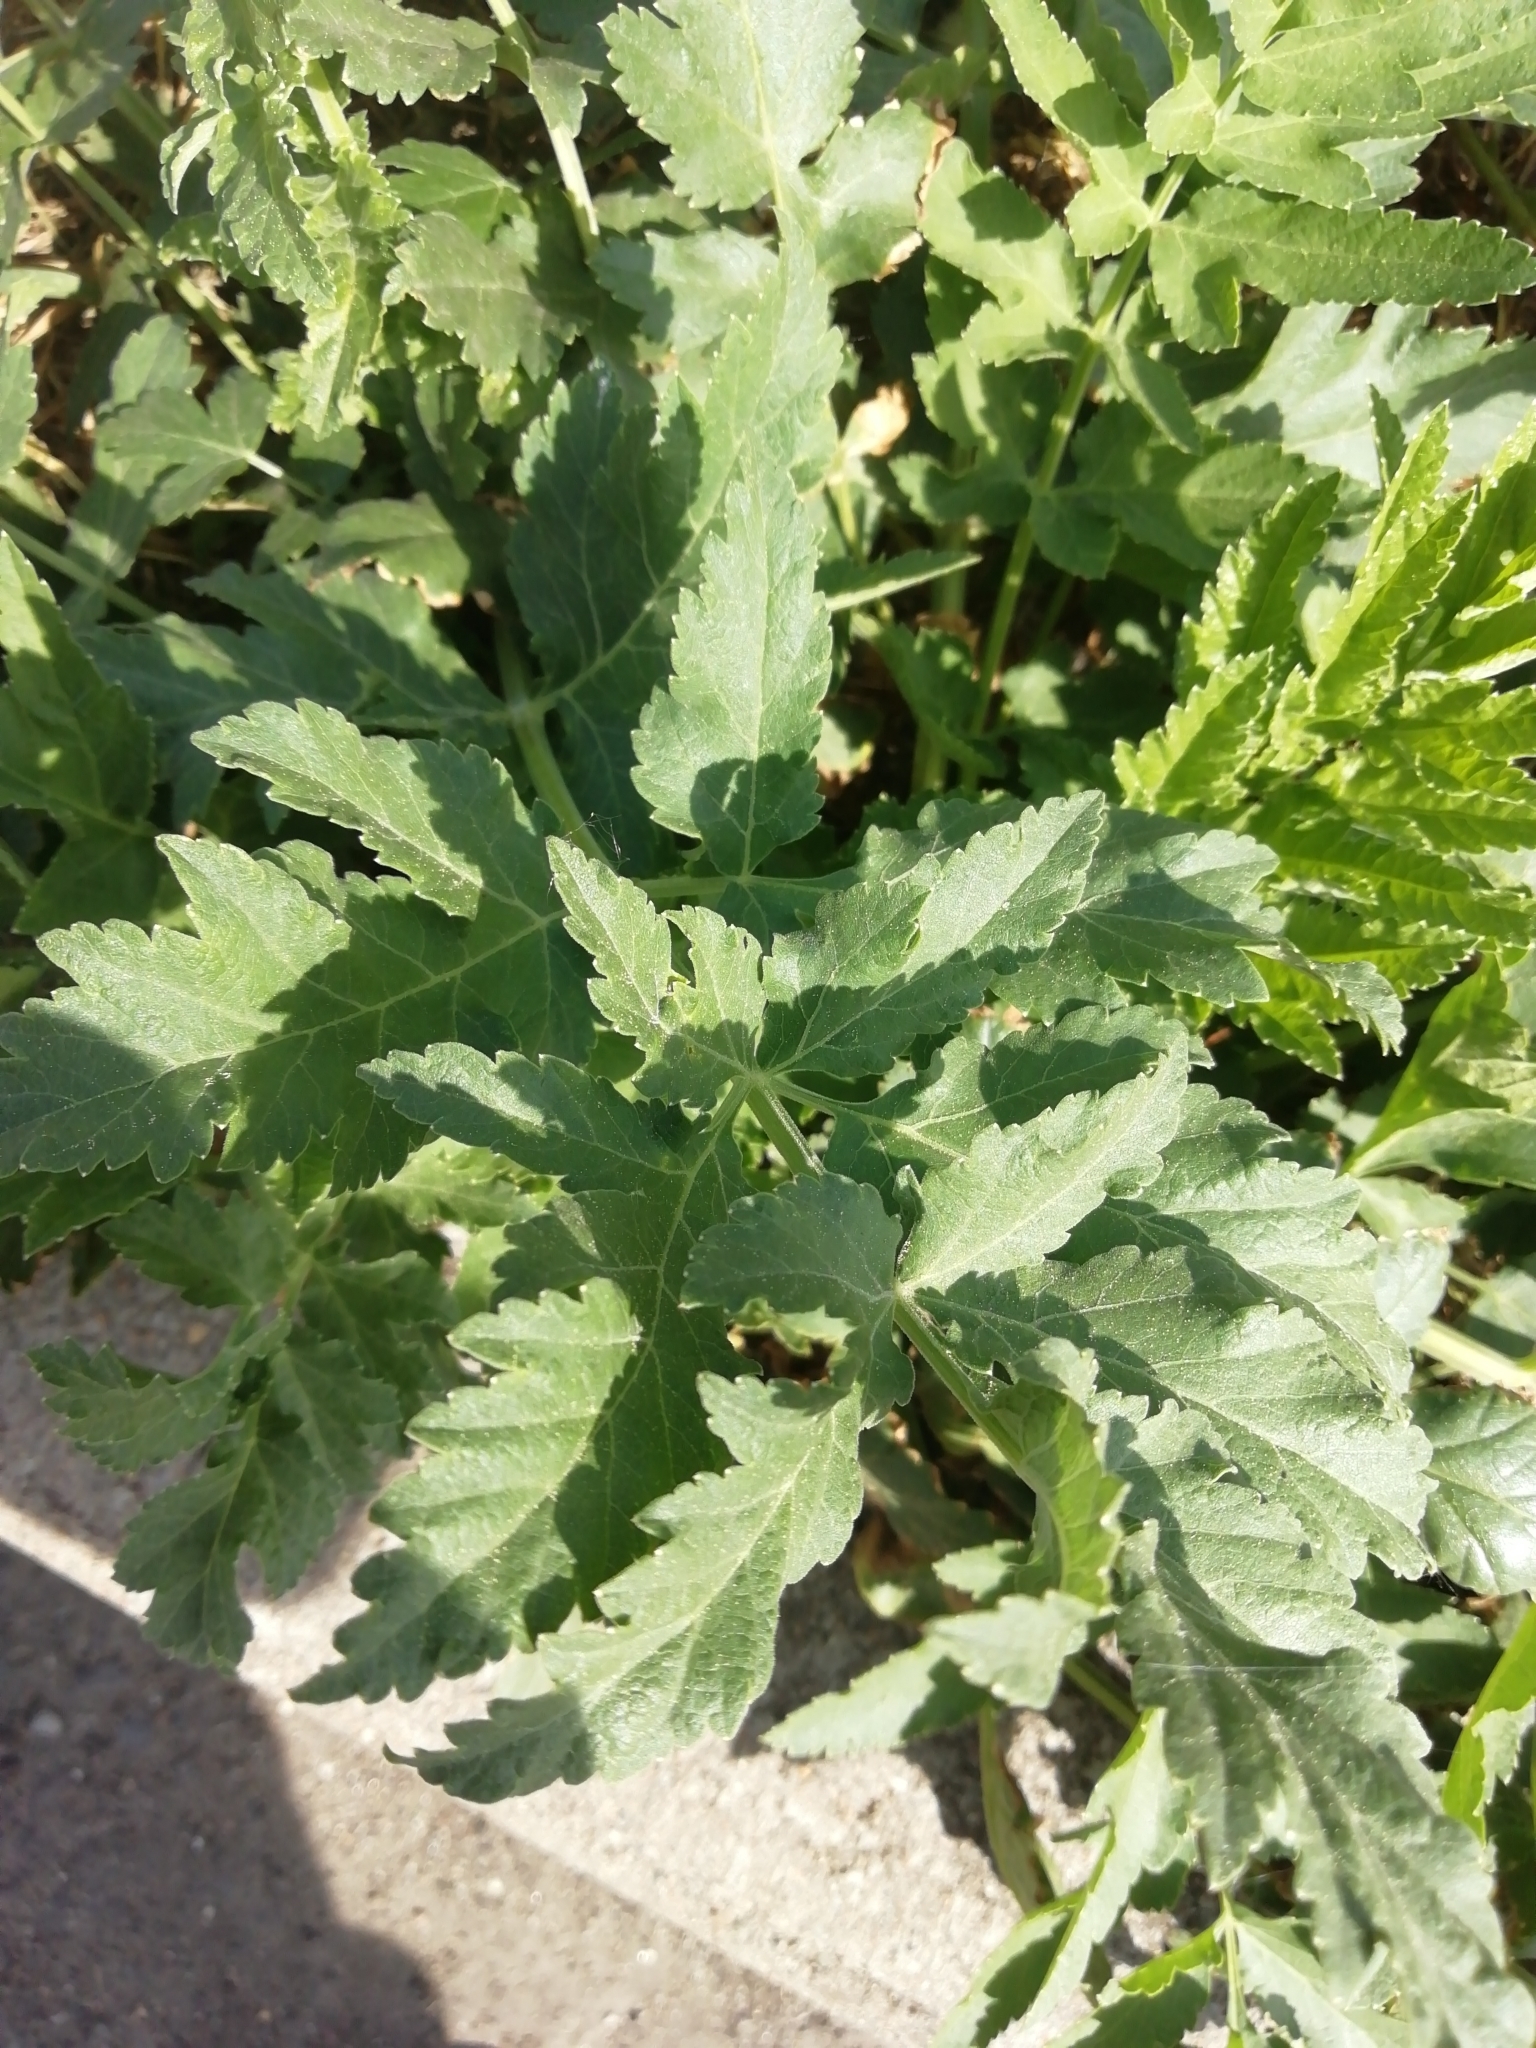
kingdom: Plantae
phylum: Tracheophyta
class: Magnoliopsida
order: Apiales
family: Apiaceae
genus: Pastinaca
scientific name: Pastinaca sativa
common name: Wild parsnip
